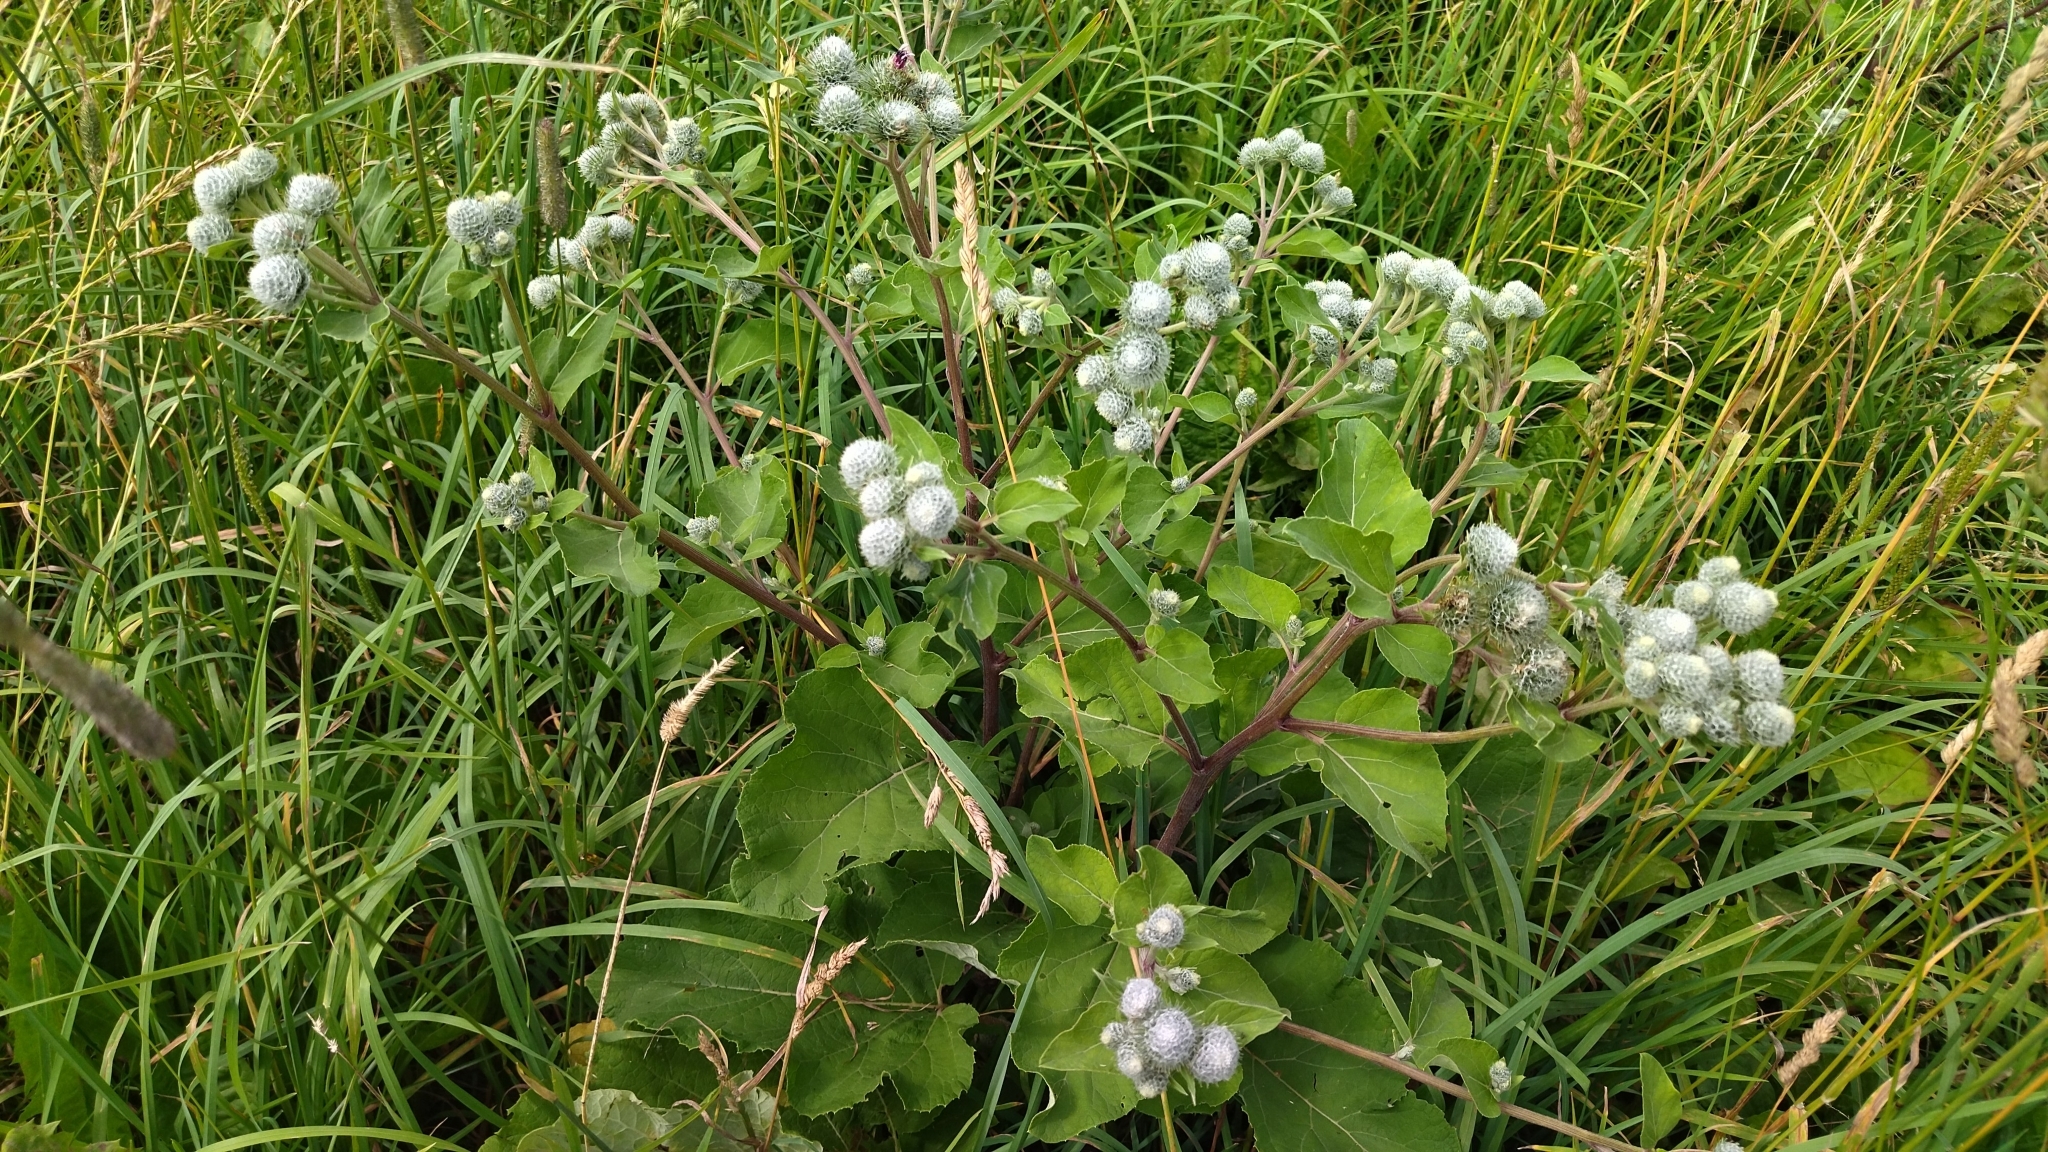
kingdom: Plantae
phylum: Tracheophyta
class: Magnoliopsida
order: Asterales
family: Asteraceae
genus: Arctium
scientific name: Arctium tomentosum
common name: Woolly burdock
